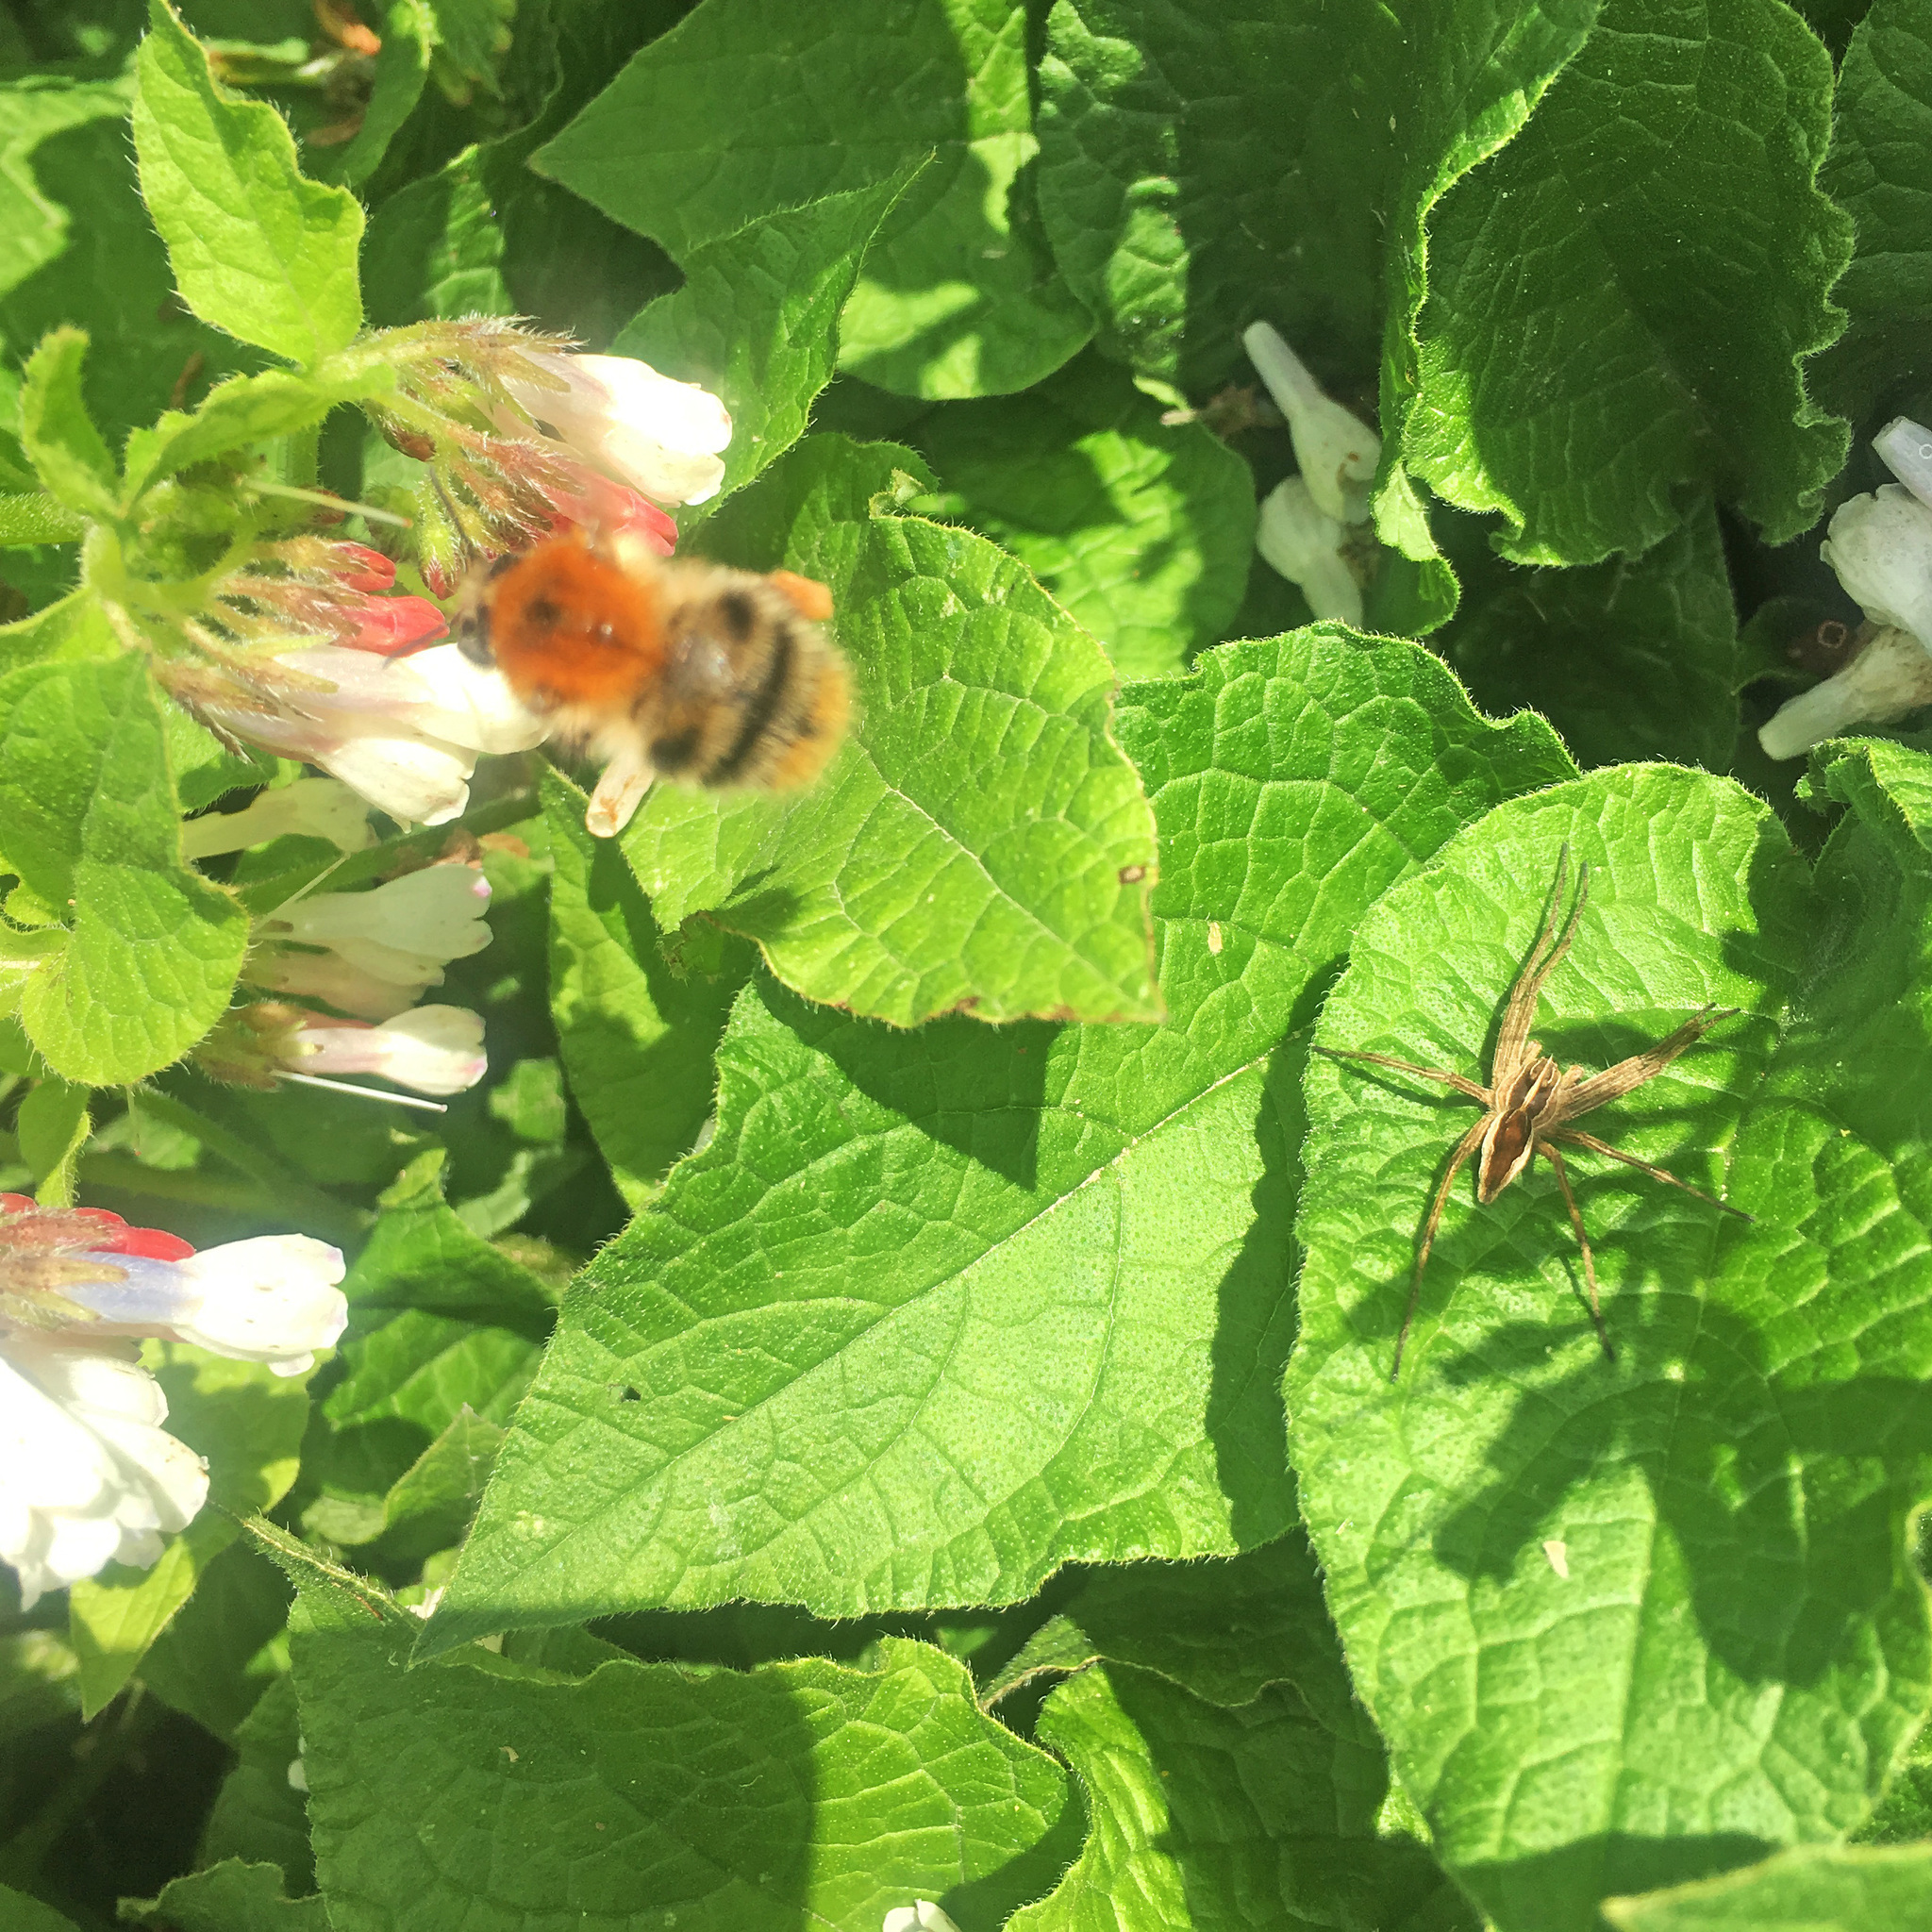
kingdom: Animalia
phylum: Arthropoda
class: Arachnida
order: Araneae
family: Pisauridae
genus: Pisaura
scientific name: Pisaura mirabilis
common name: Tent spider
